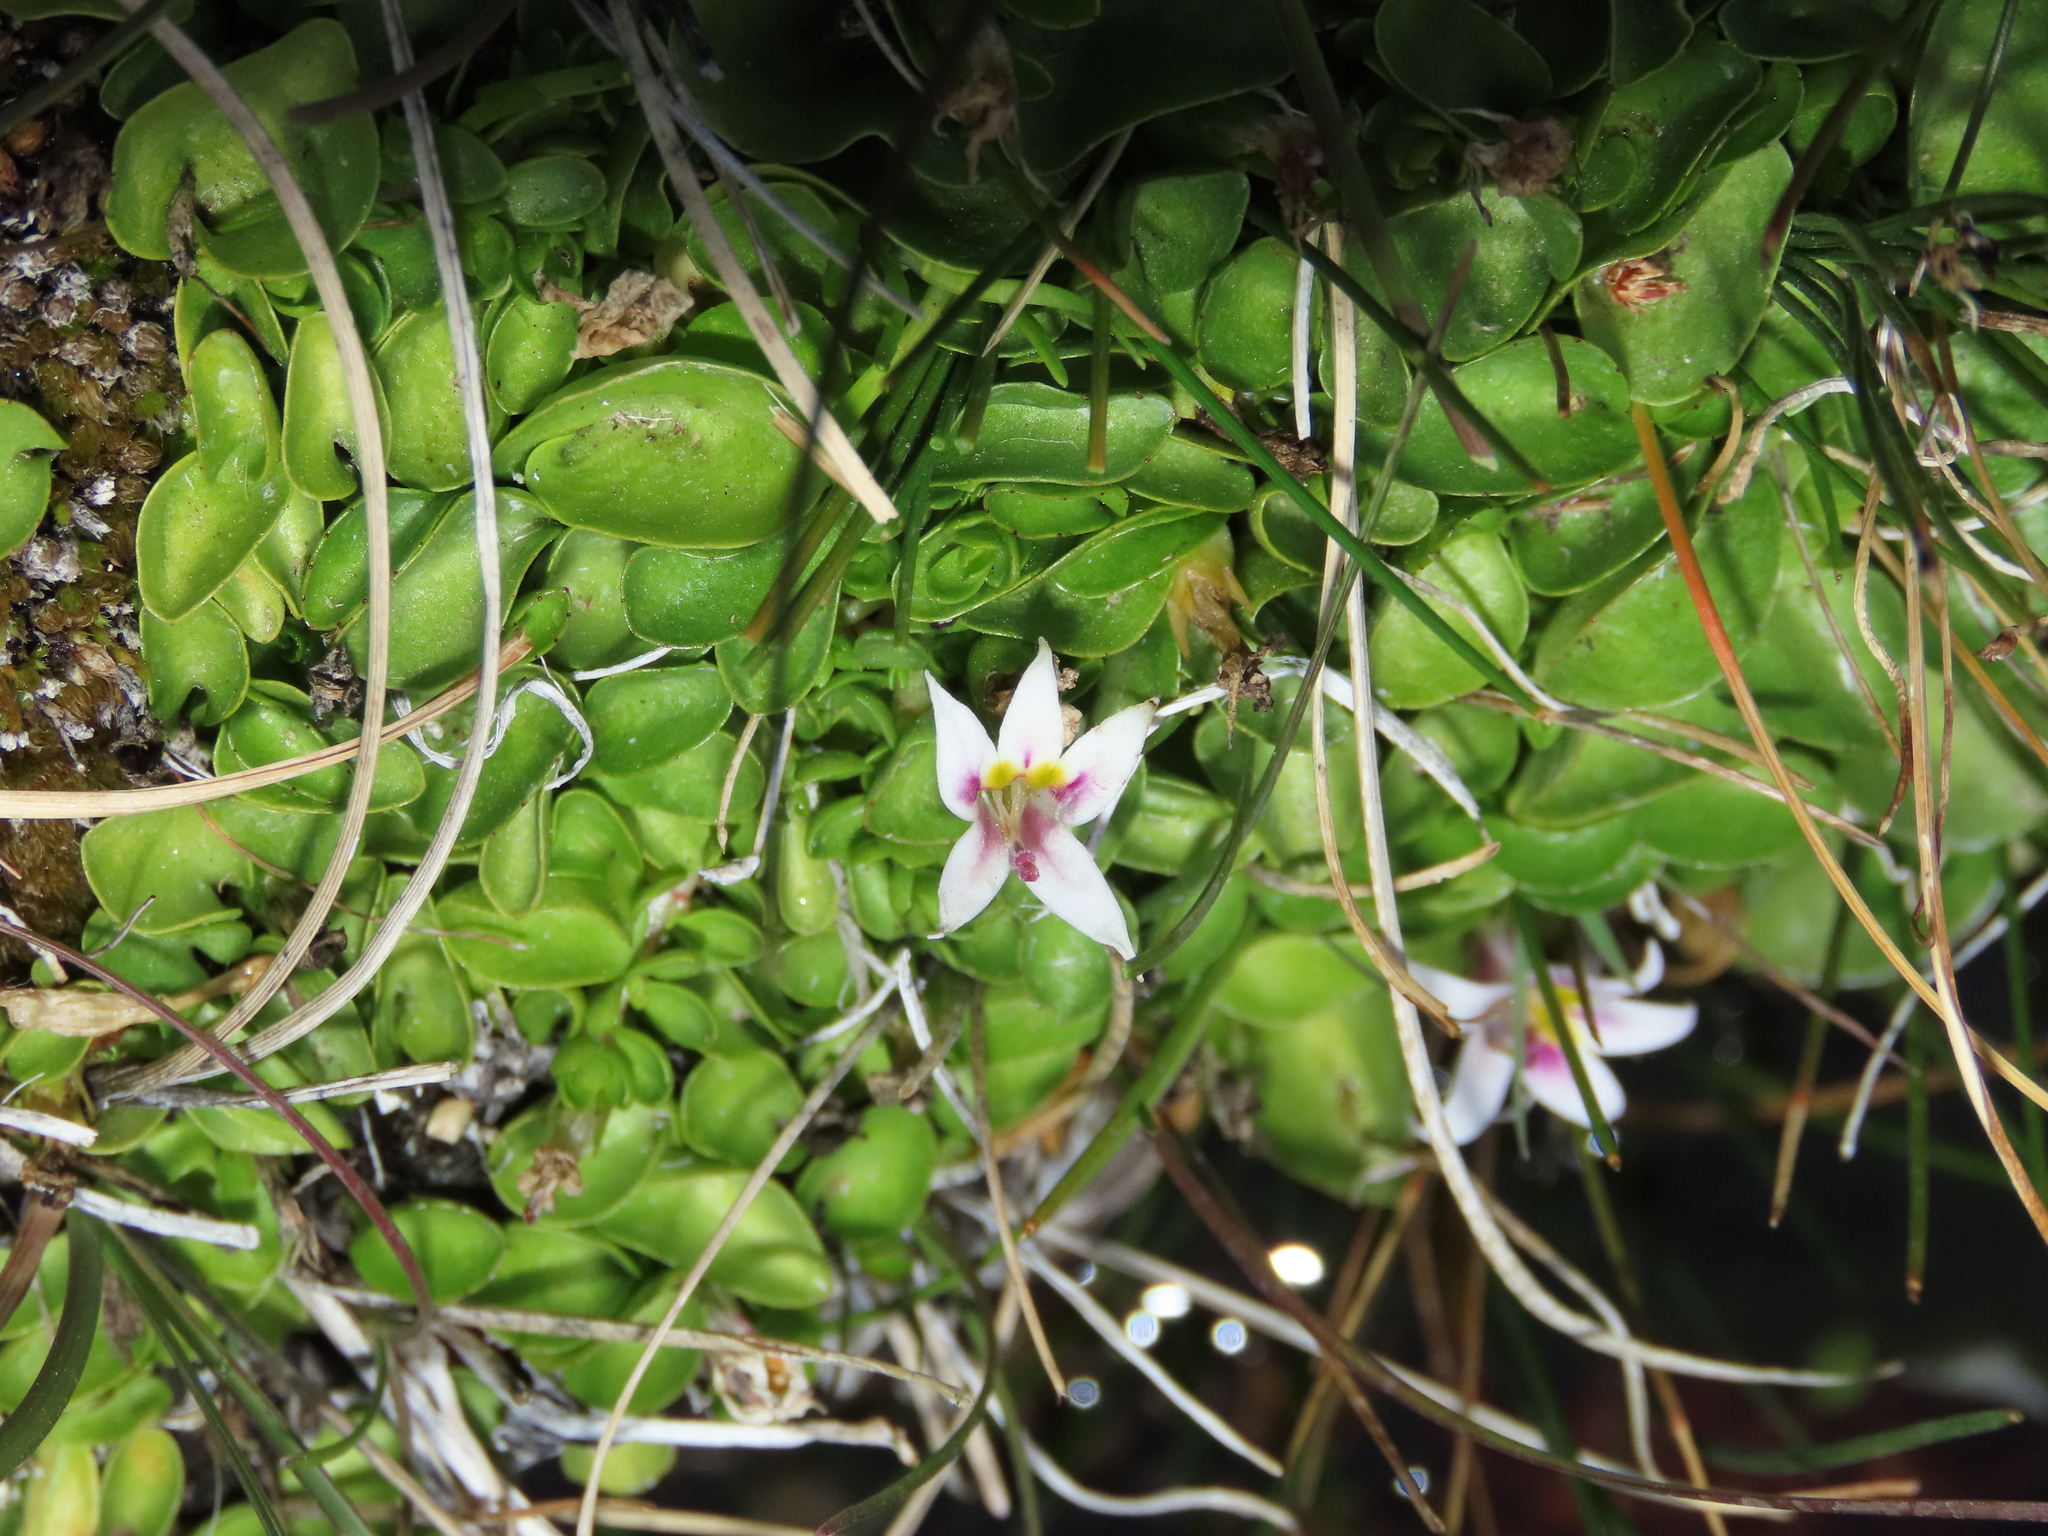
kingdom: Plantae
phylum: Tracheophyta
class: Magnoliopsida
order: Asterales
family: Campanulaceae
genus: Lobelia
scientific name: Lobelia oligophylla
